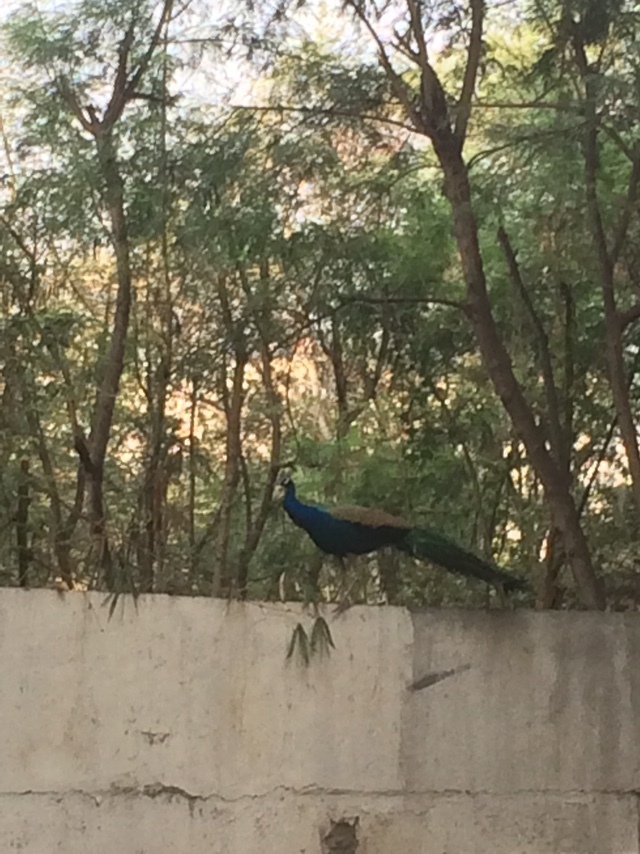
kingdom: Animalia
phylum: Chordata
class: Aves
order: Galliformes
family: Phasianidae
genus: Pavo
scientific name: Pavo cristatus
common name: Indian peafowl
